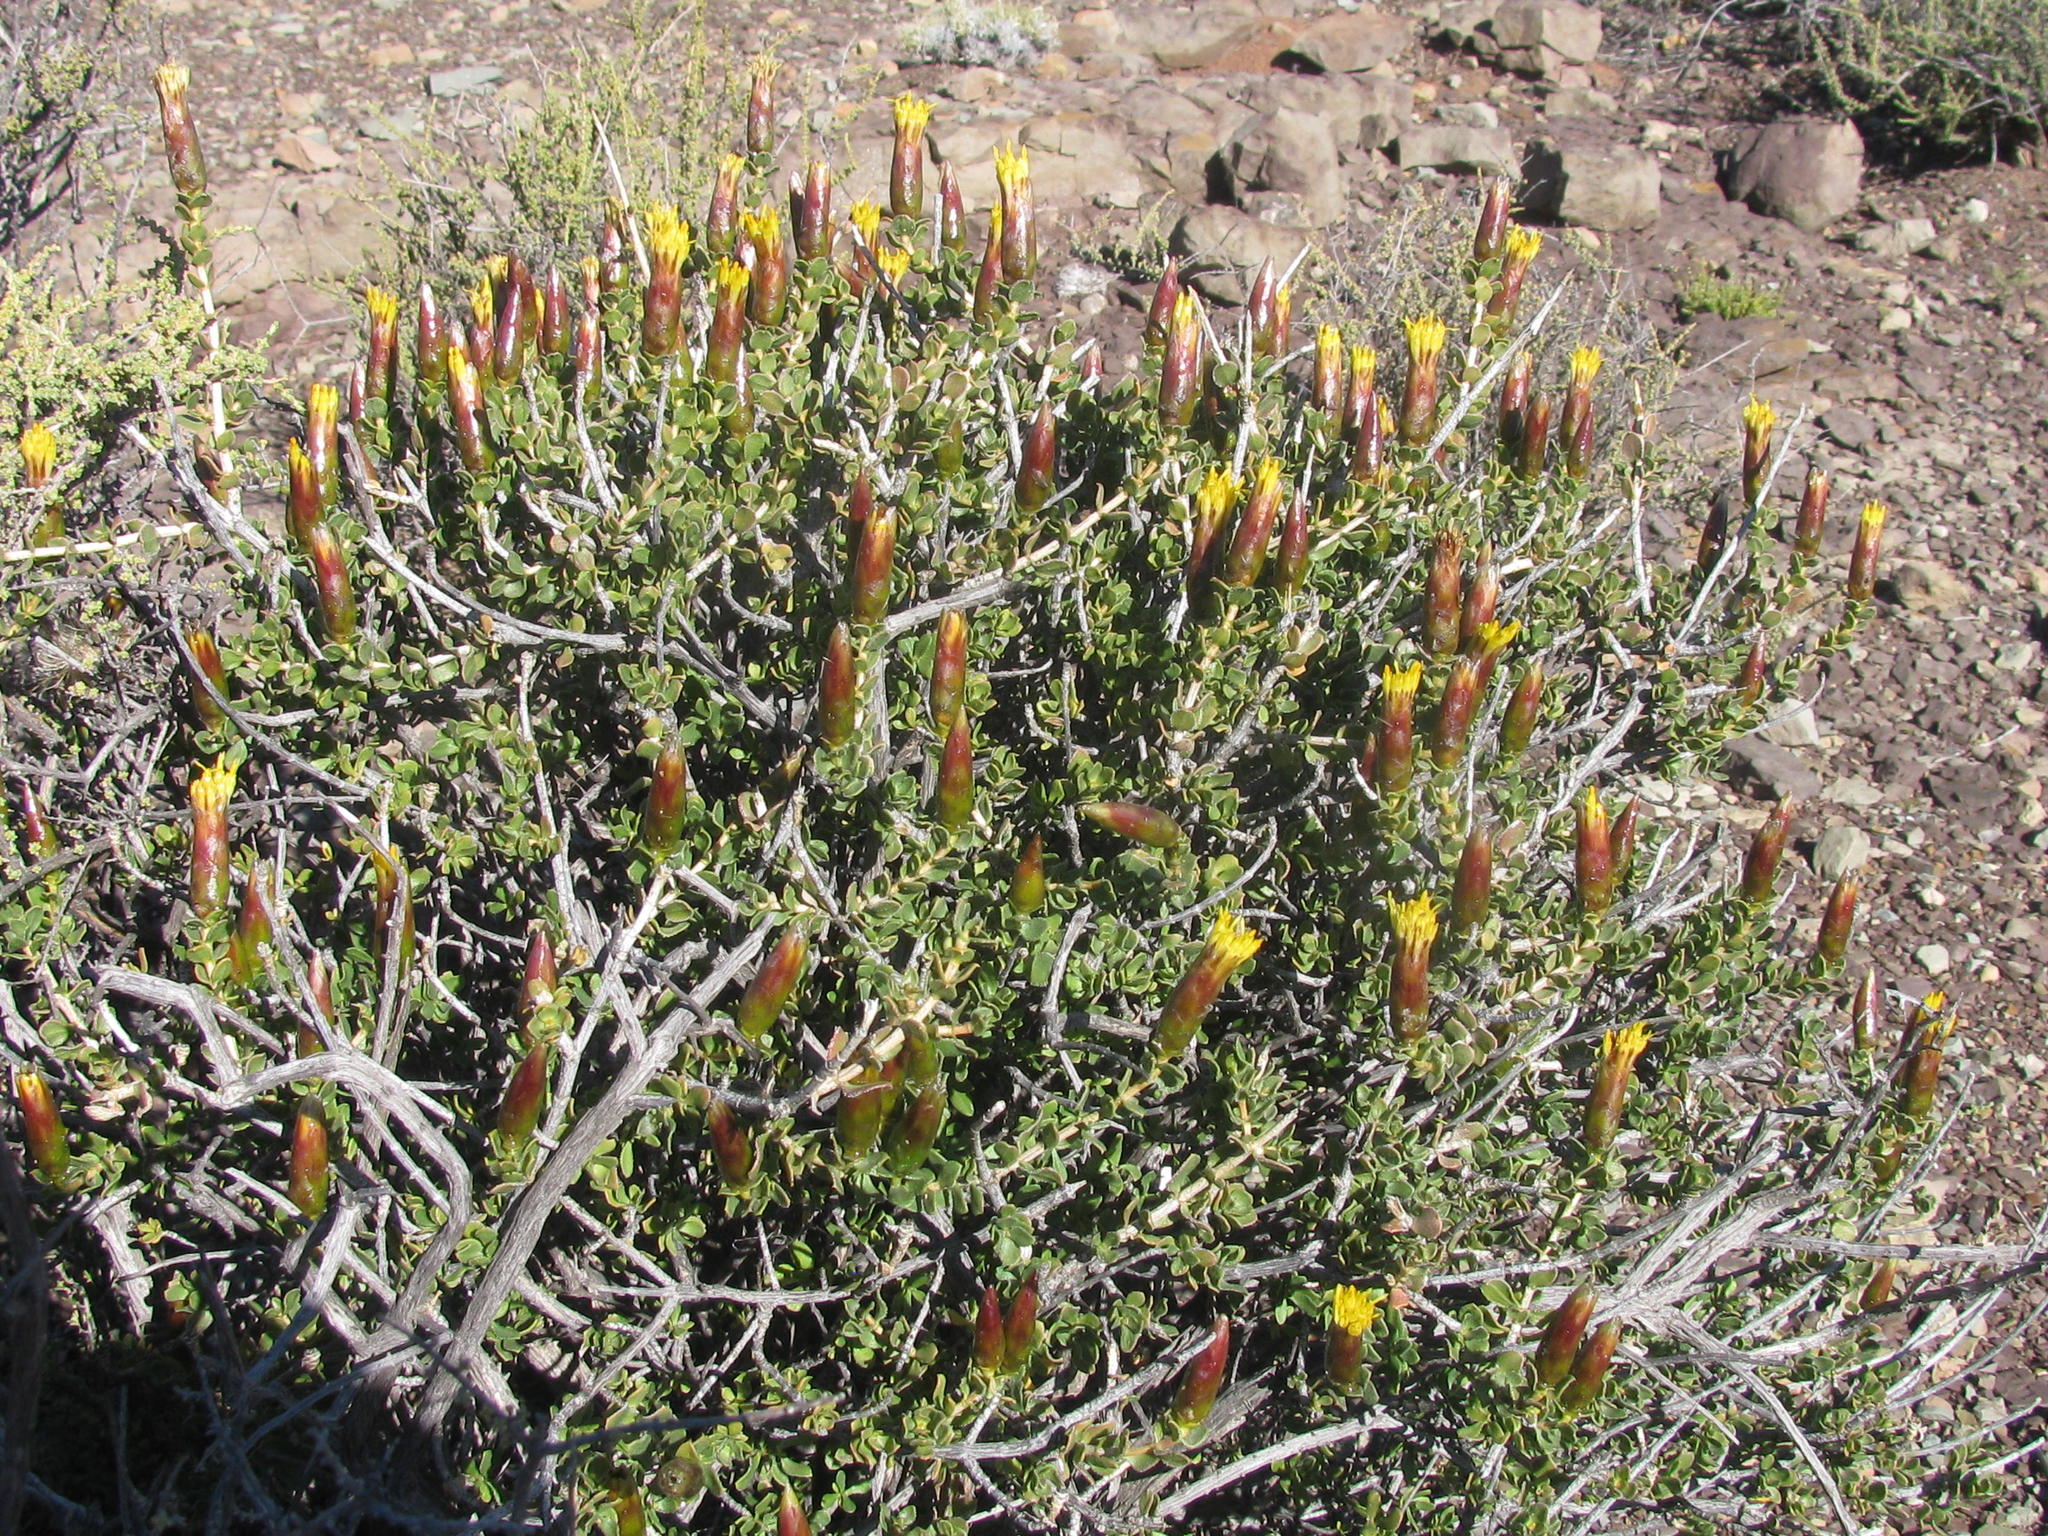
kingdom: Plantae
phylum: Tracheophyta
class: Magnoliopsida
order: Asterales
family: Asteraceae
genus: Pteronia
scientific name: Pteronia adenocarpa
